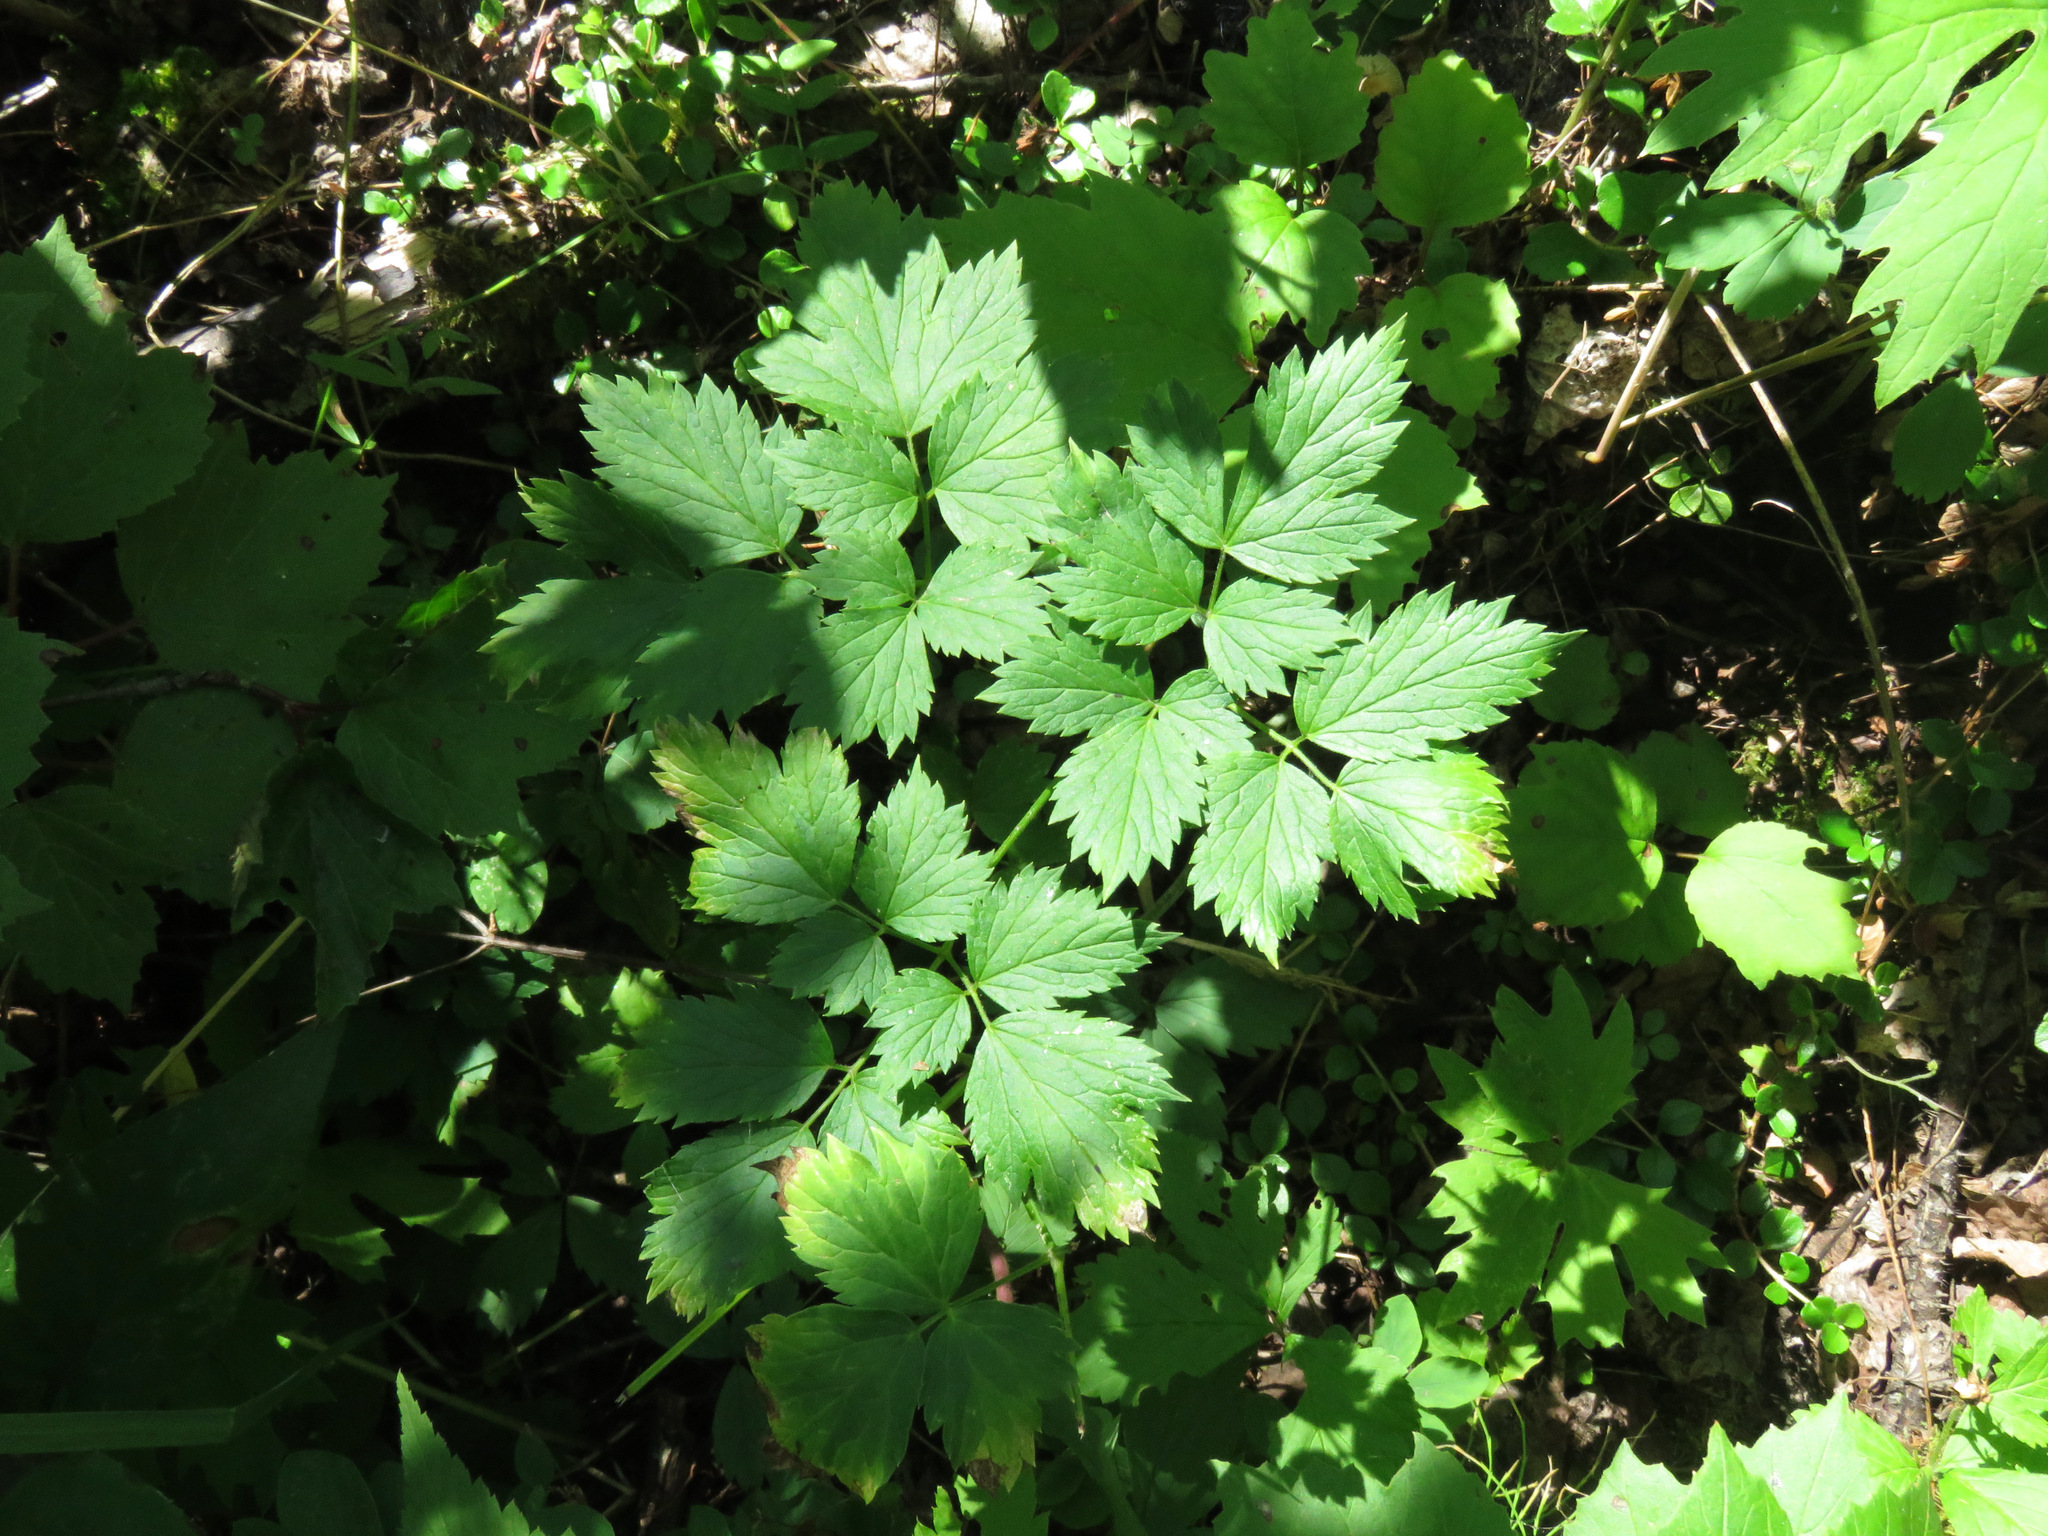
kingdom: Plantae
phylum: Tracheophyta
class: Magnoliopsida
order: Ranunculales
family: Ranunculaceae
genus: Actaea
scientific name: Actaea rubra
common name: Red baneberry
